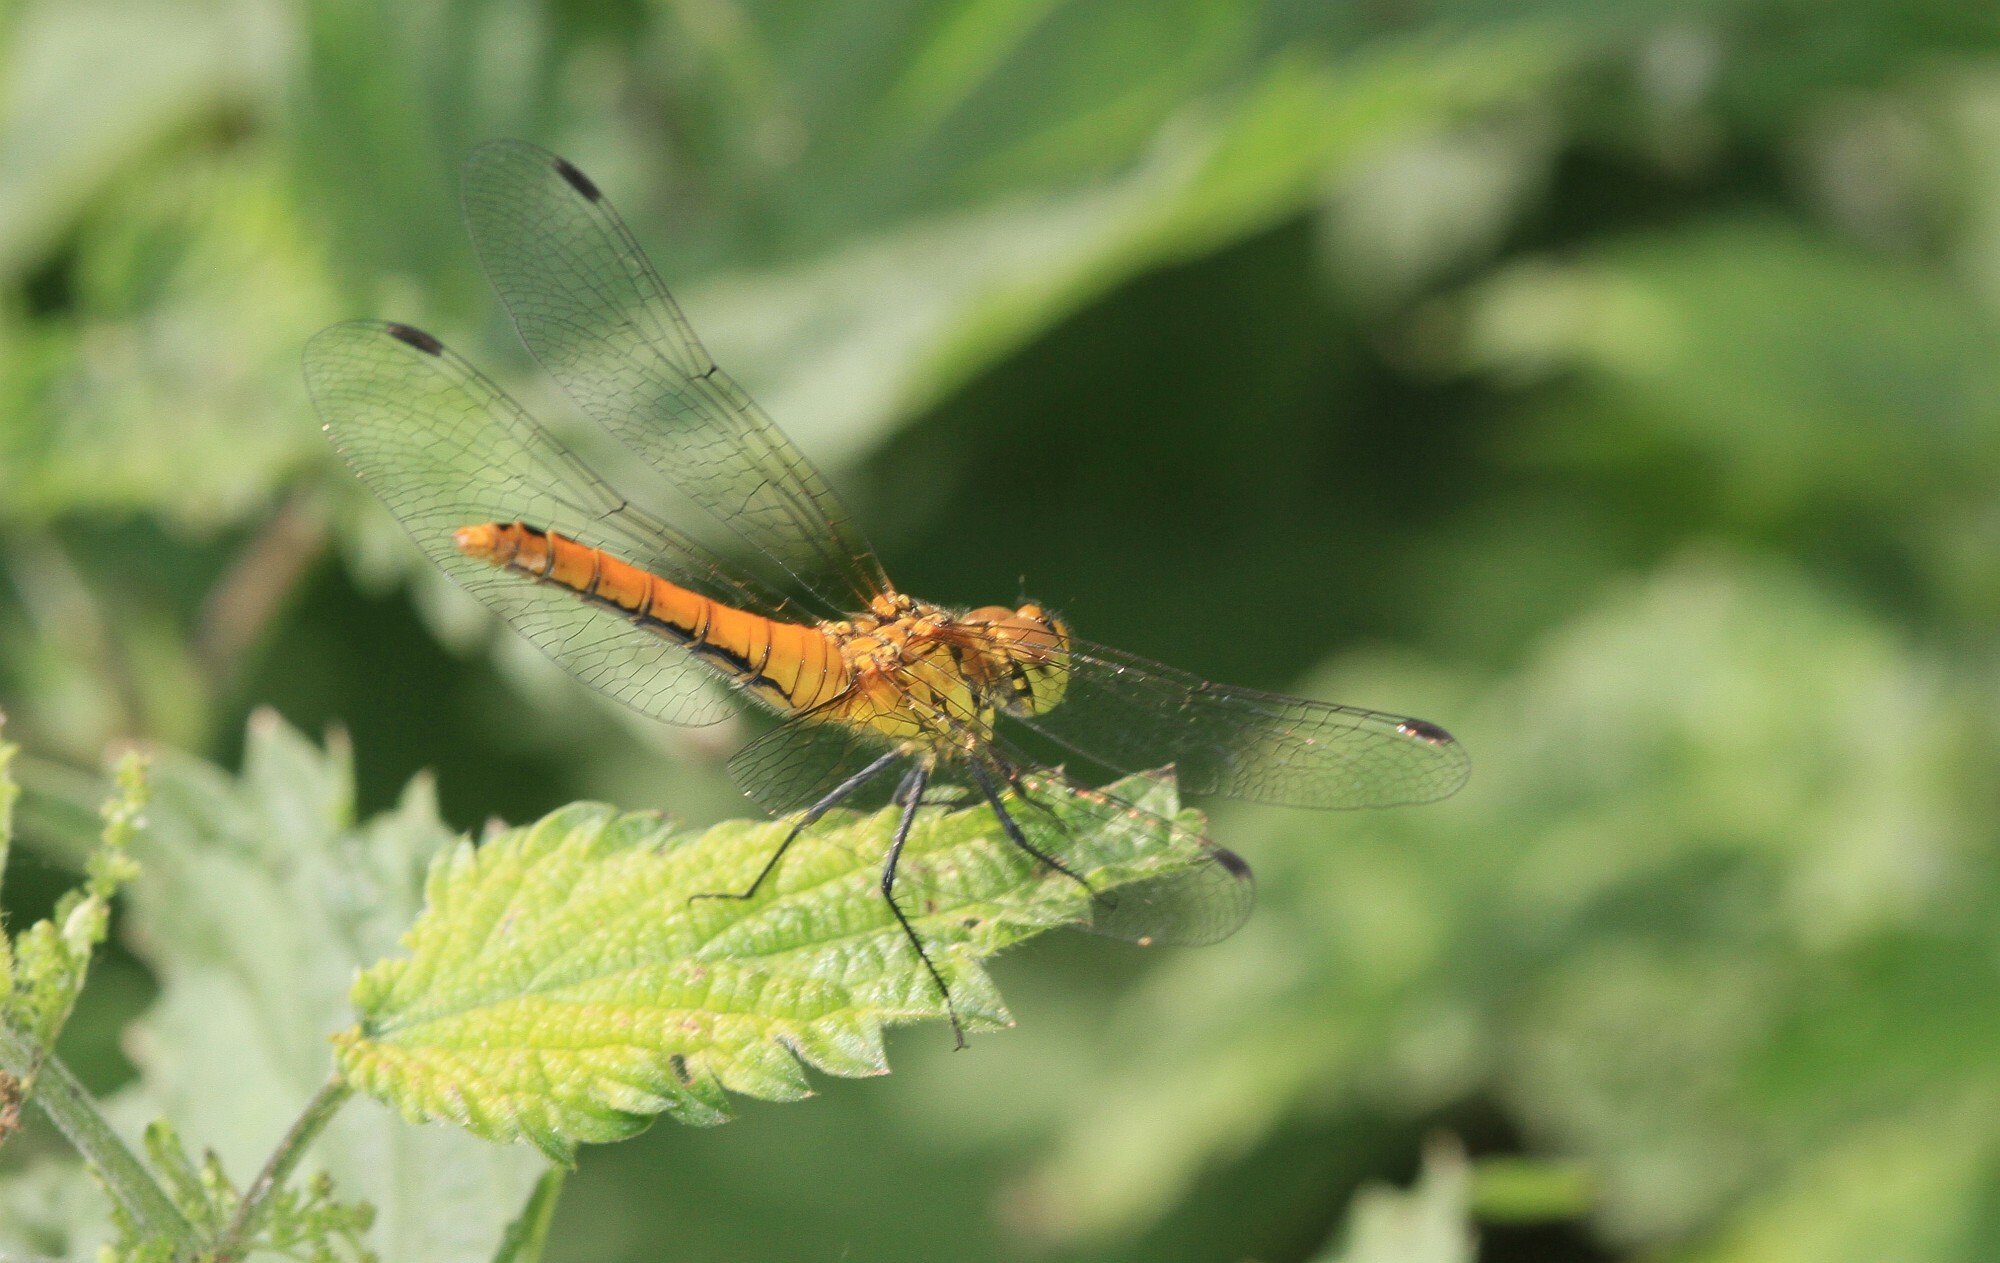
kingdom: Animalia
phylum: Arthropoda
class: Insecta
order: Odonata
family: Libellulidae
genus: Sympetrum
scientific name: Sympetrum sanguineum
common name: Ruddy darter
